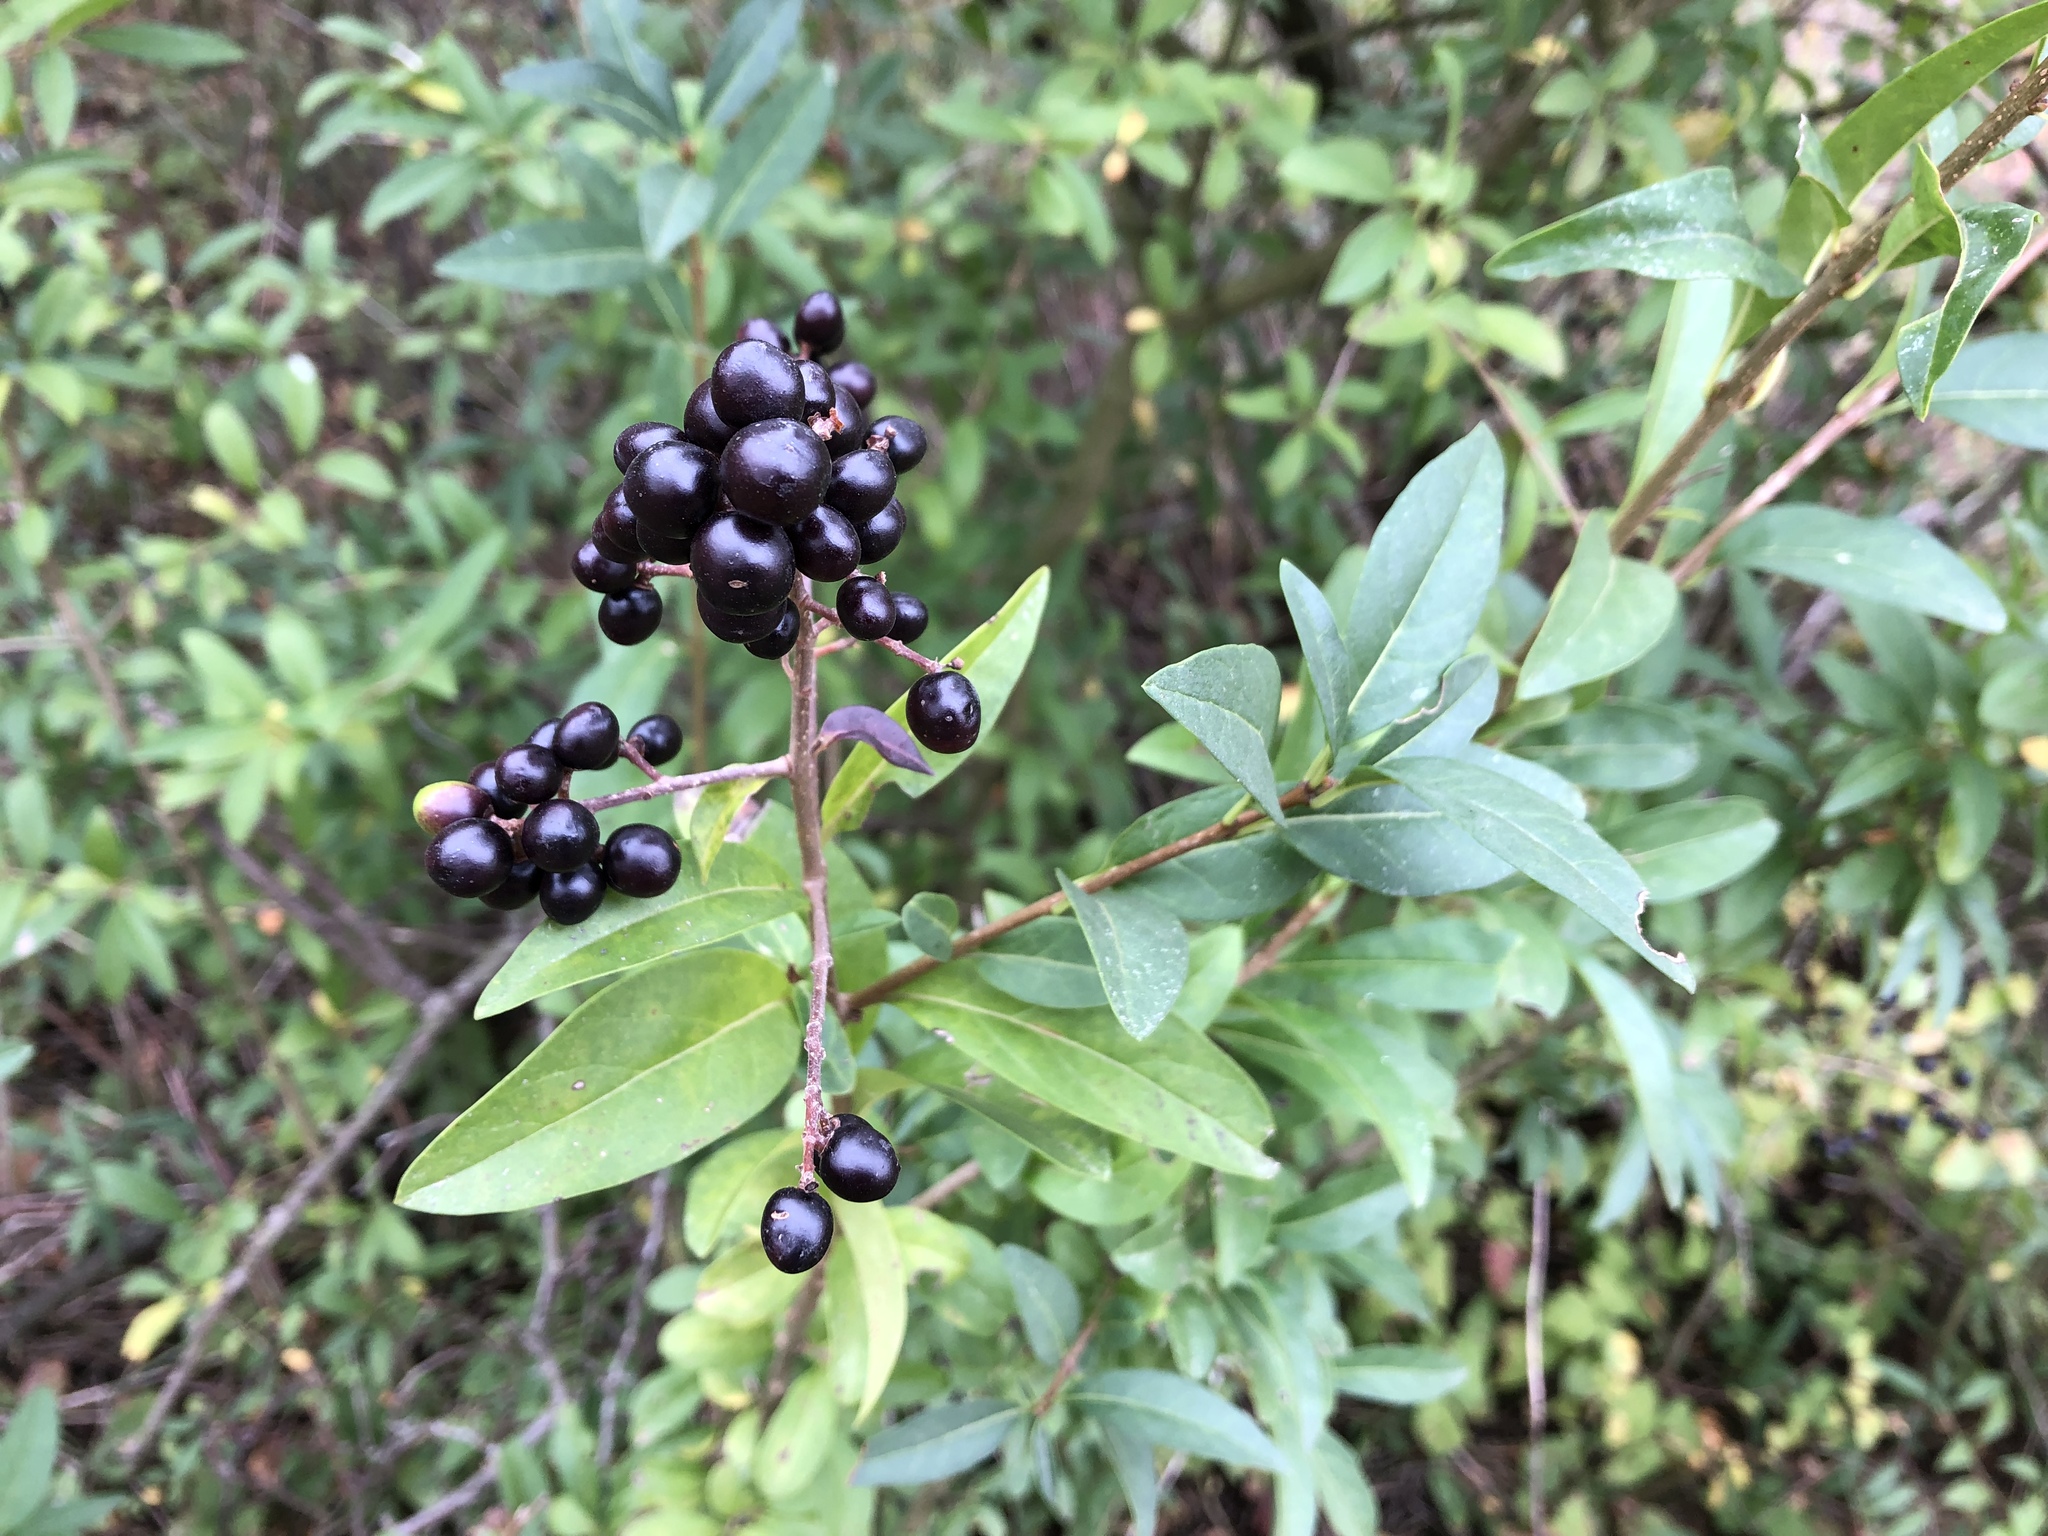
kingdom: Plantae
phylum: Tracheophyta
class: Magnoliopsida
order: Lamiales
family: Oleaceae
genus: Ligustrum
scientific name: Ligustrum vulgare
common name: Wild privet
